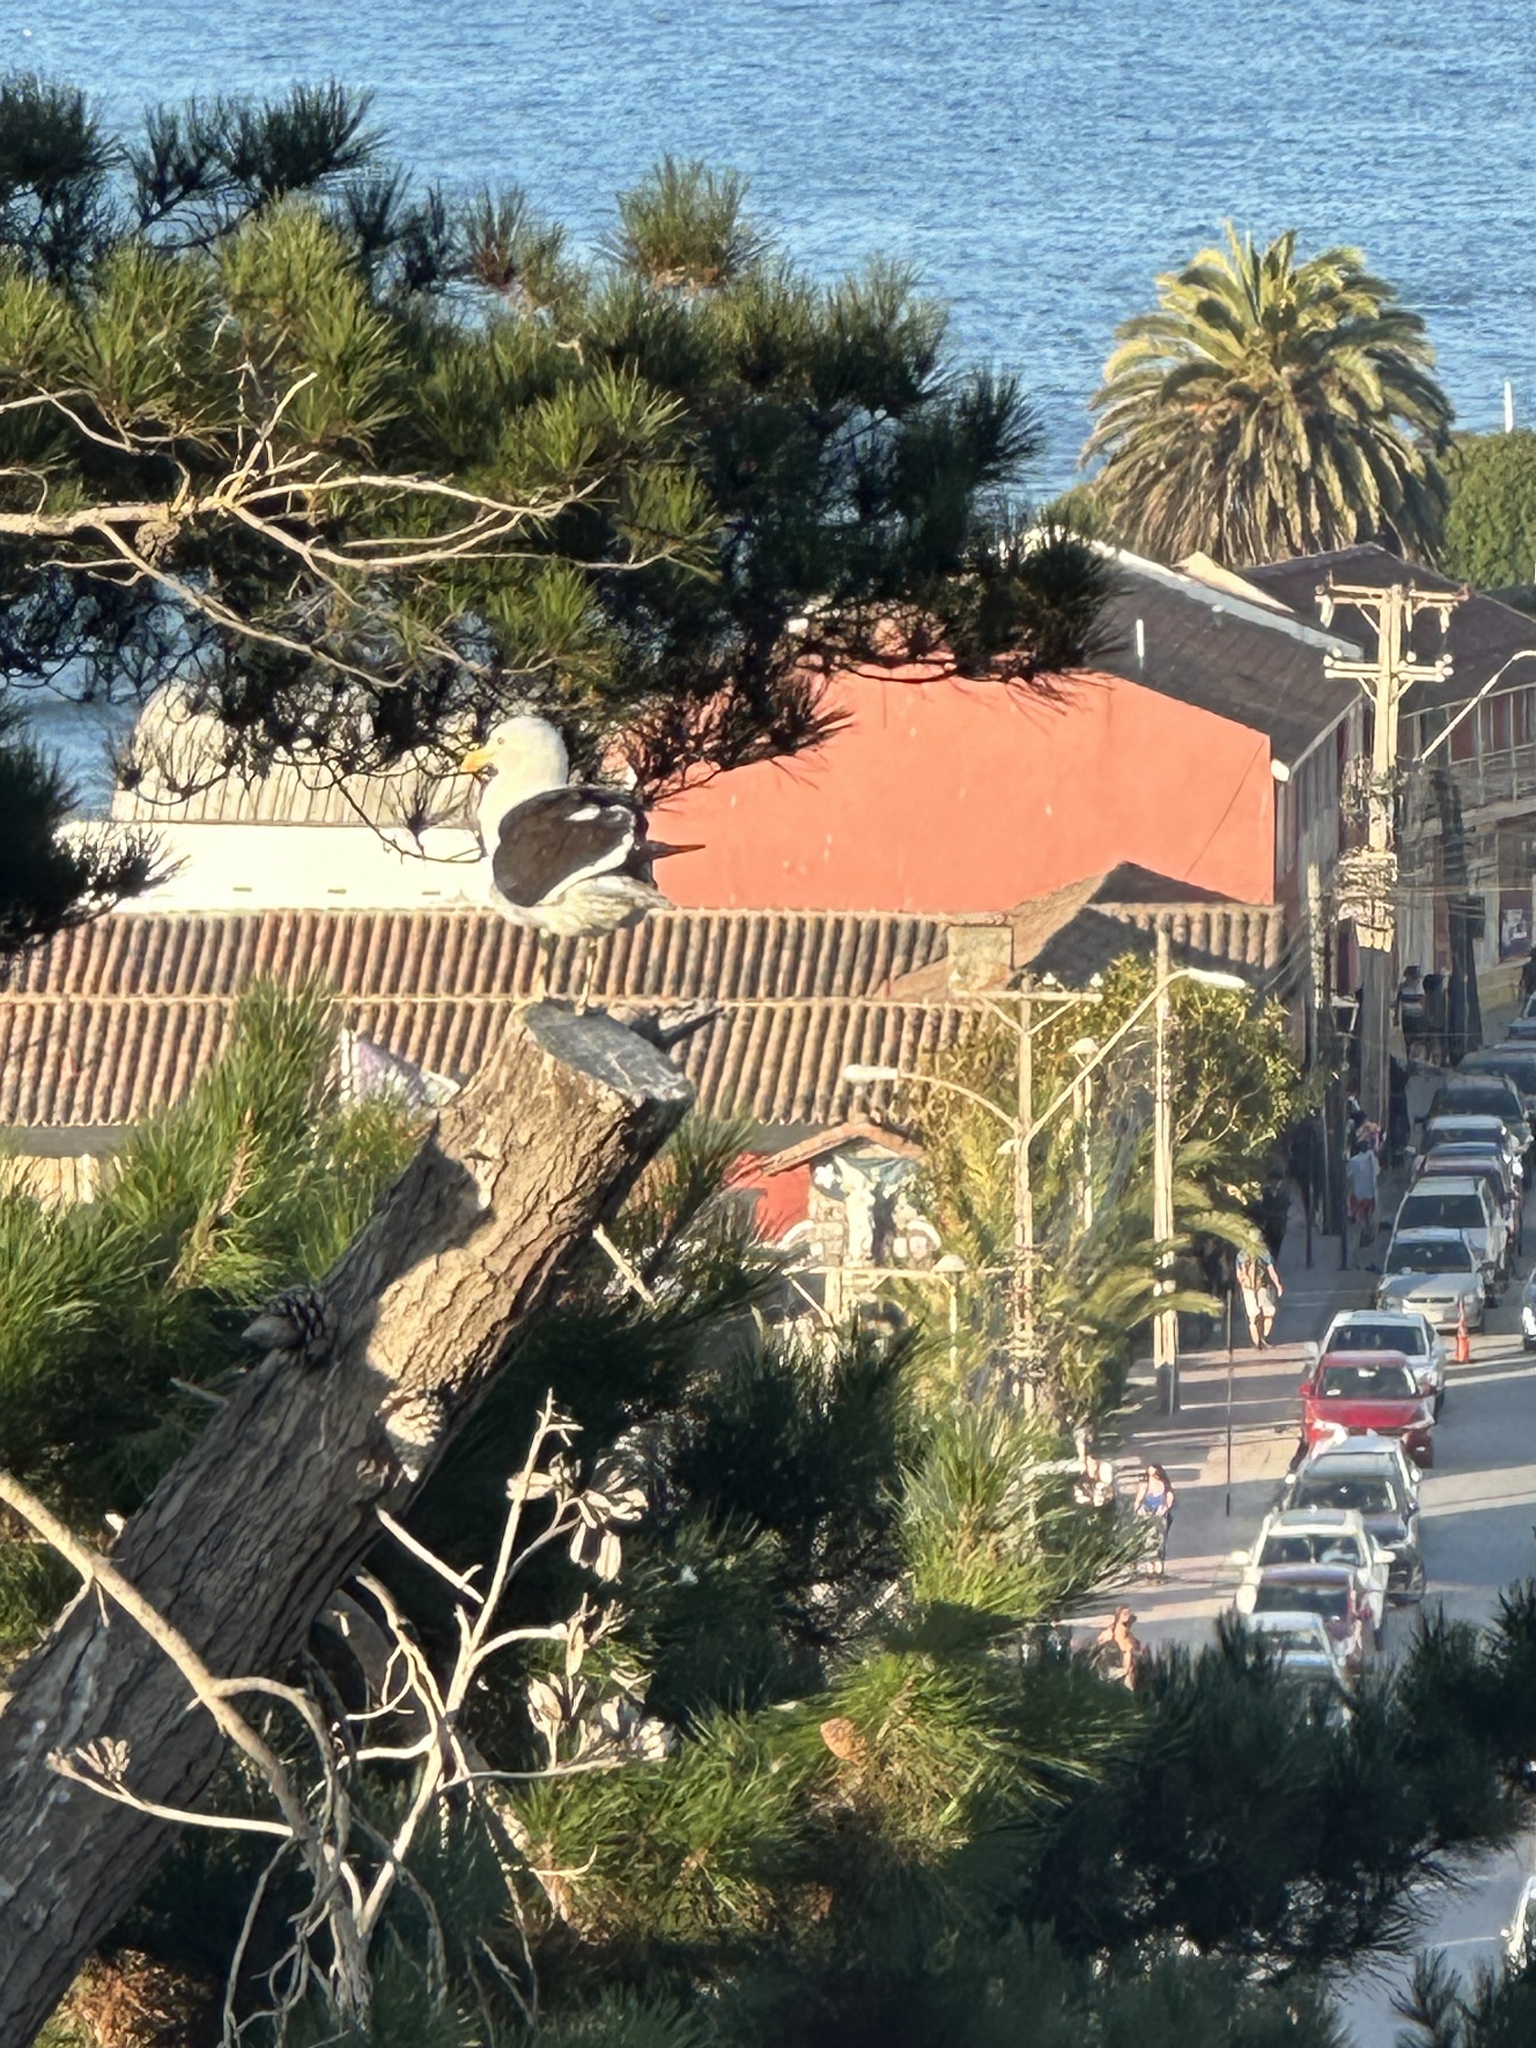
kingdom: Animalia
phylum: Chordata
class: Aves
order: Charadriiformes
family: Laridae
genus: Larus
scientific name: Larus dominicanus
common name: Kelp gull
